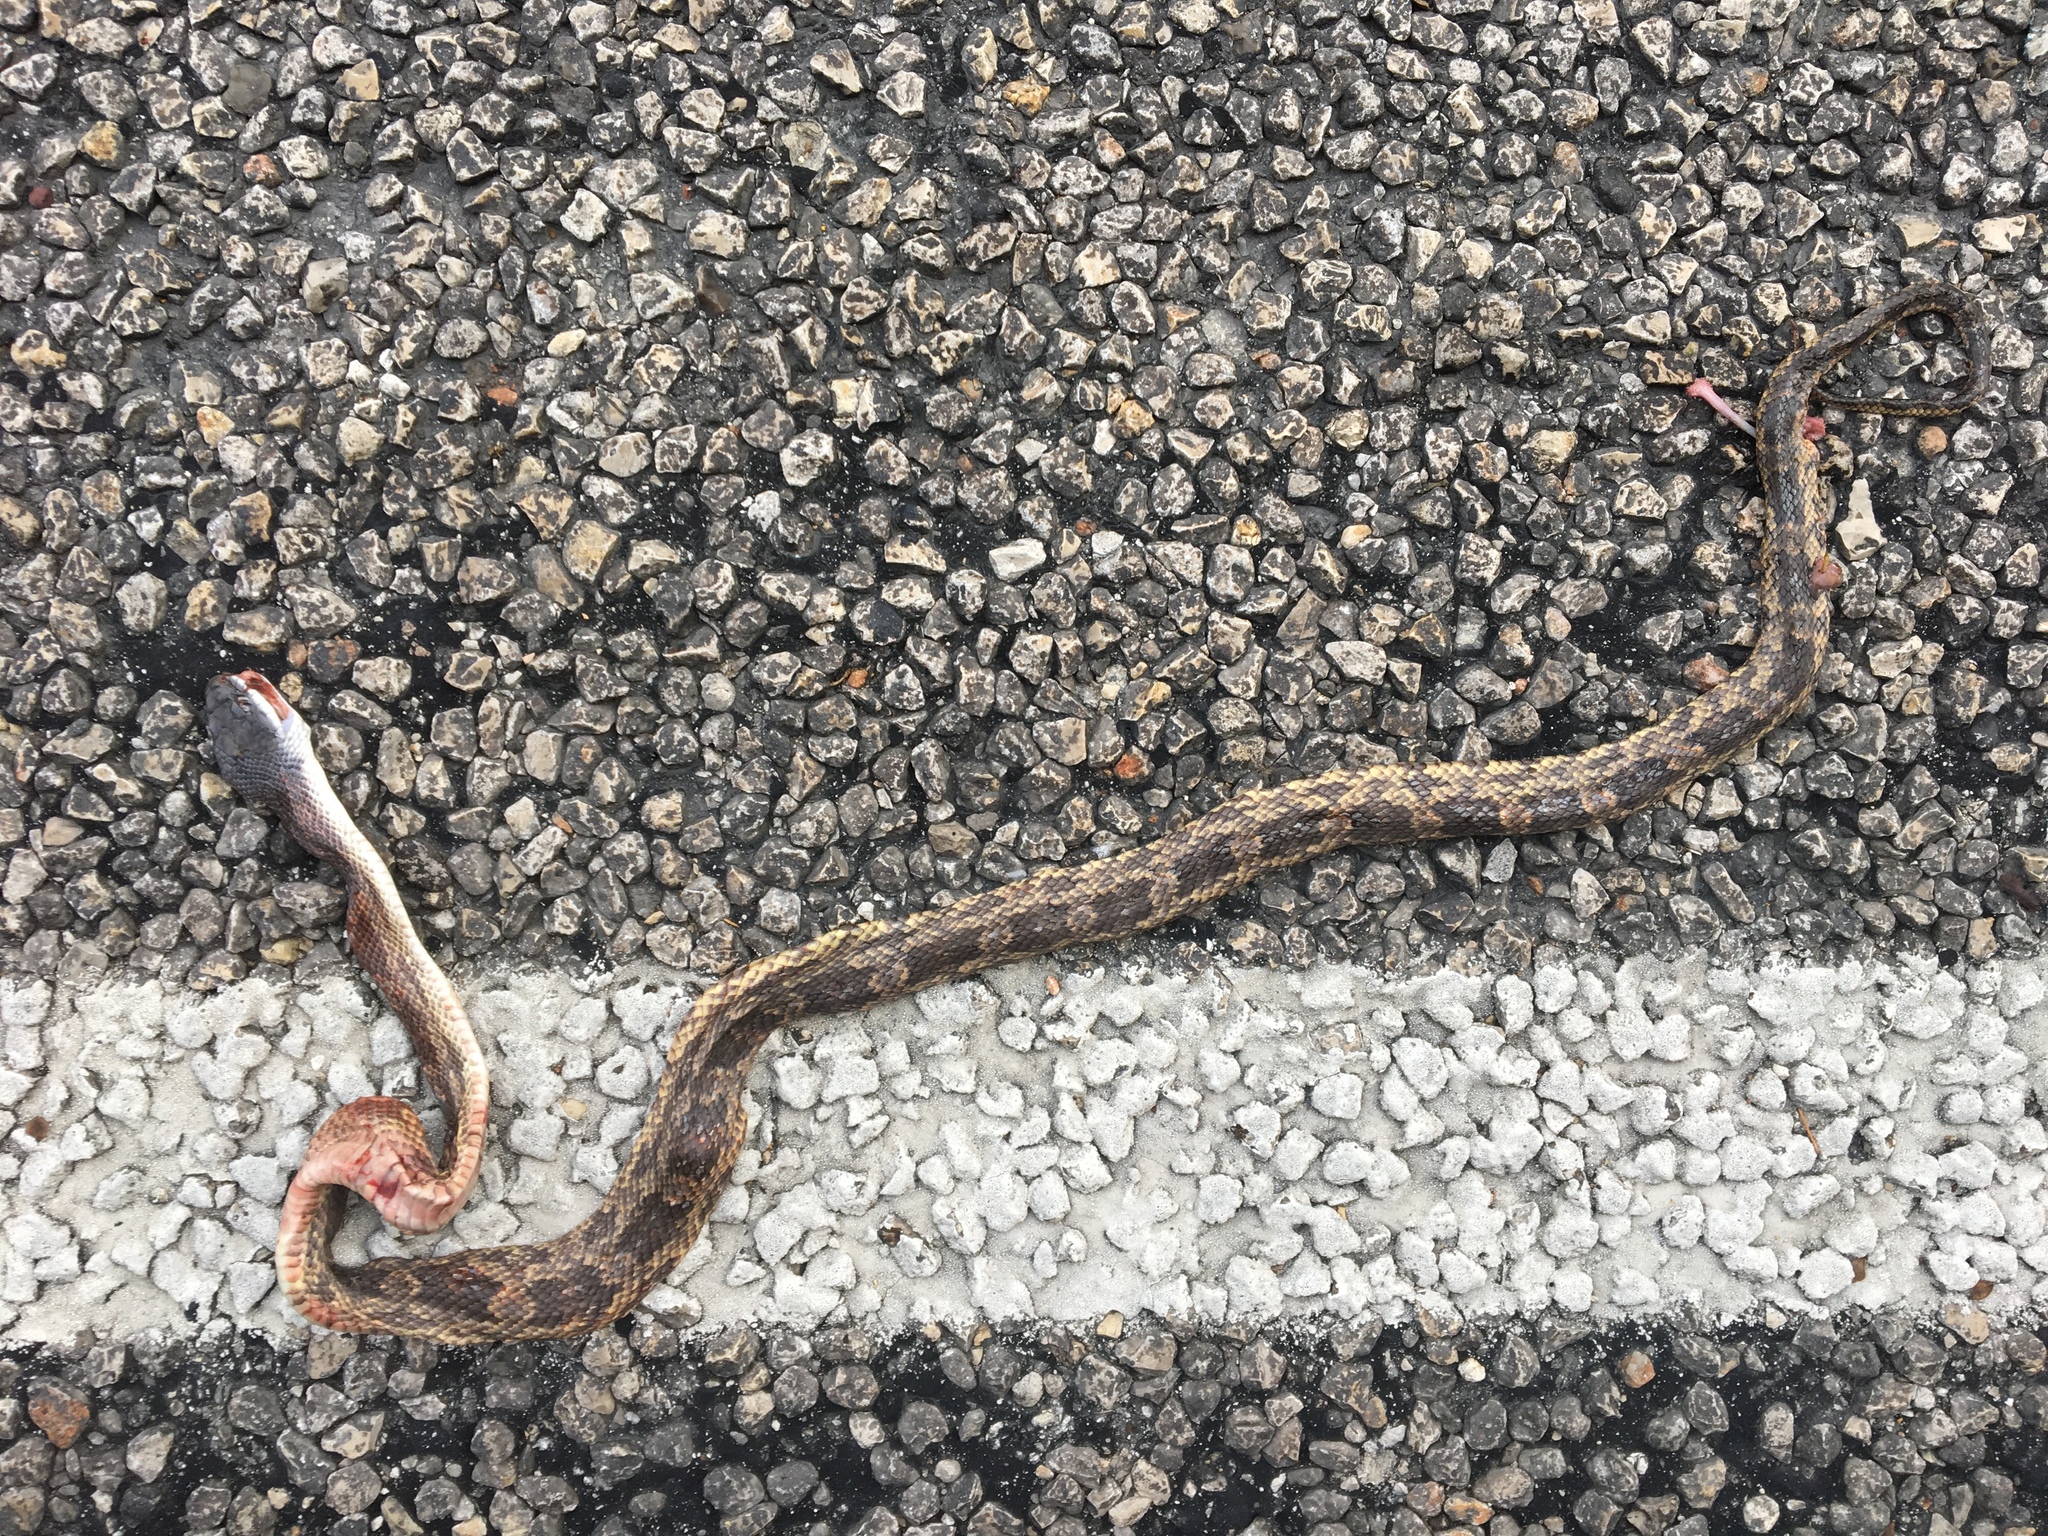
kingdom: Animalia
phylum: Chordata
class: Squamata
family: Colubridae
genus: Pantherophis
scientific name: Pantherophis obsoletus
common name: Black rat snake
